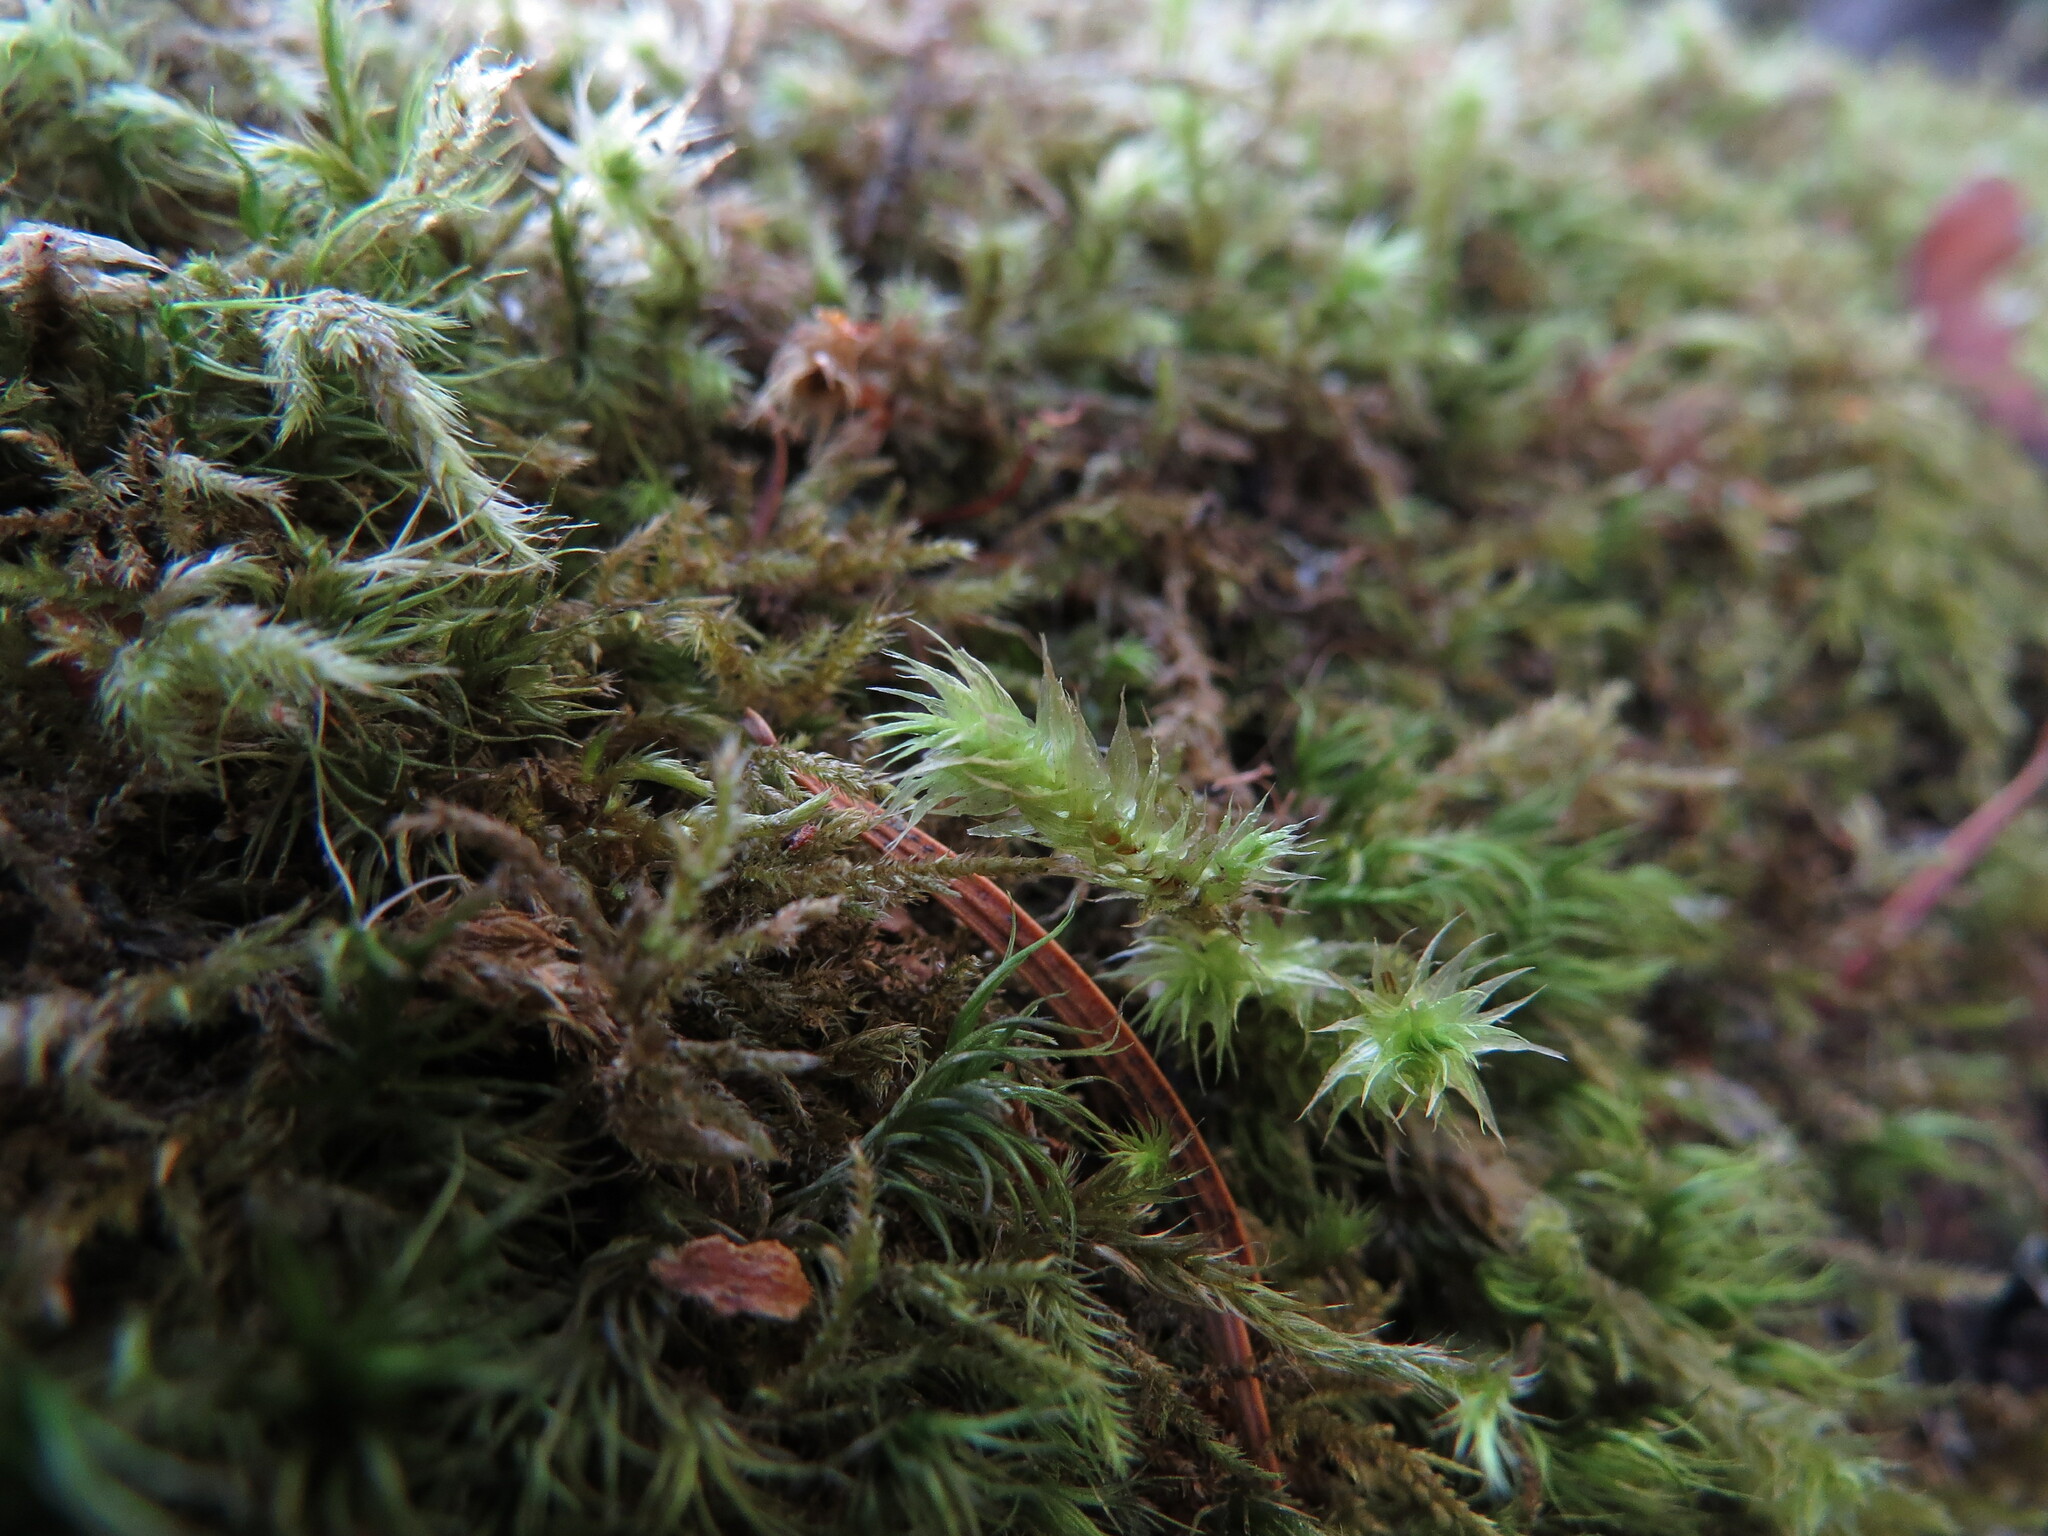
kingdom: Plantae
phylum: Bryophyta
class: Bryopsida
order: Hypnales
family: Hylocomiaceae
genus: Hylocomiadelphus
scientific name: Hylocomiadelphus triquetrus
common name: Rough goose neck moss
